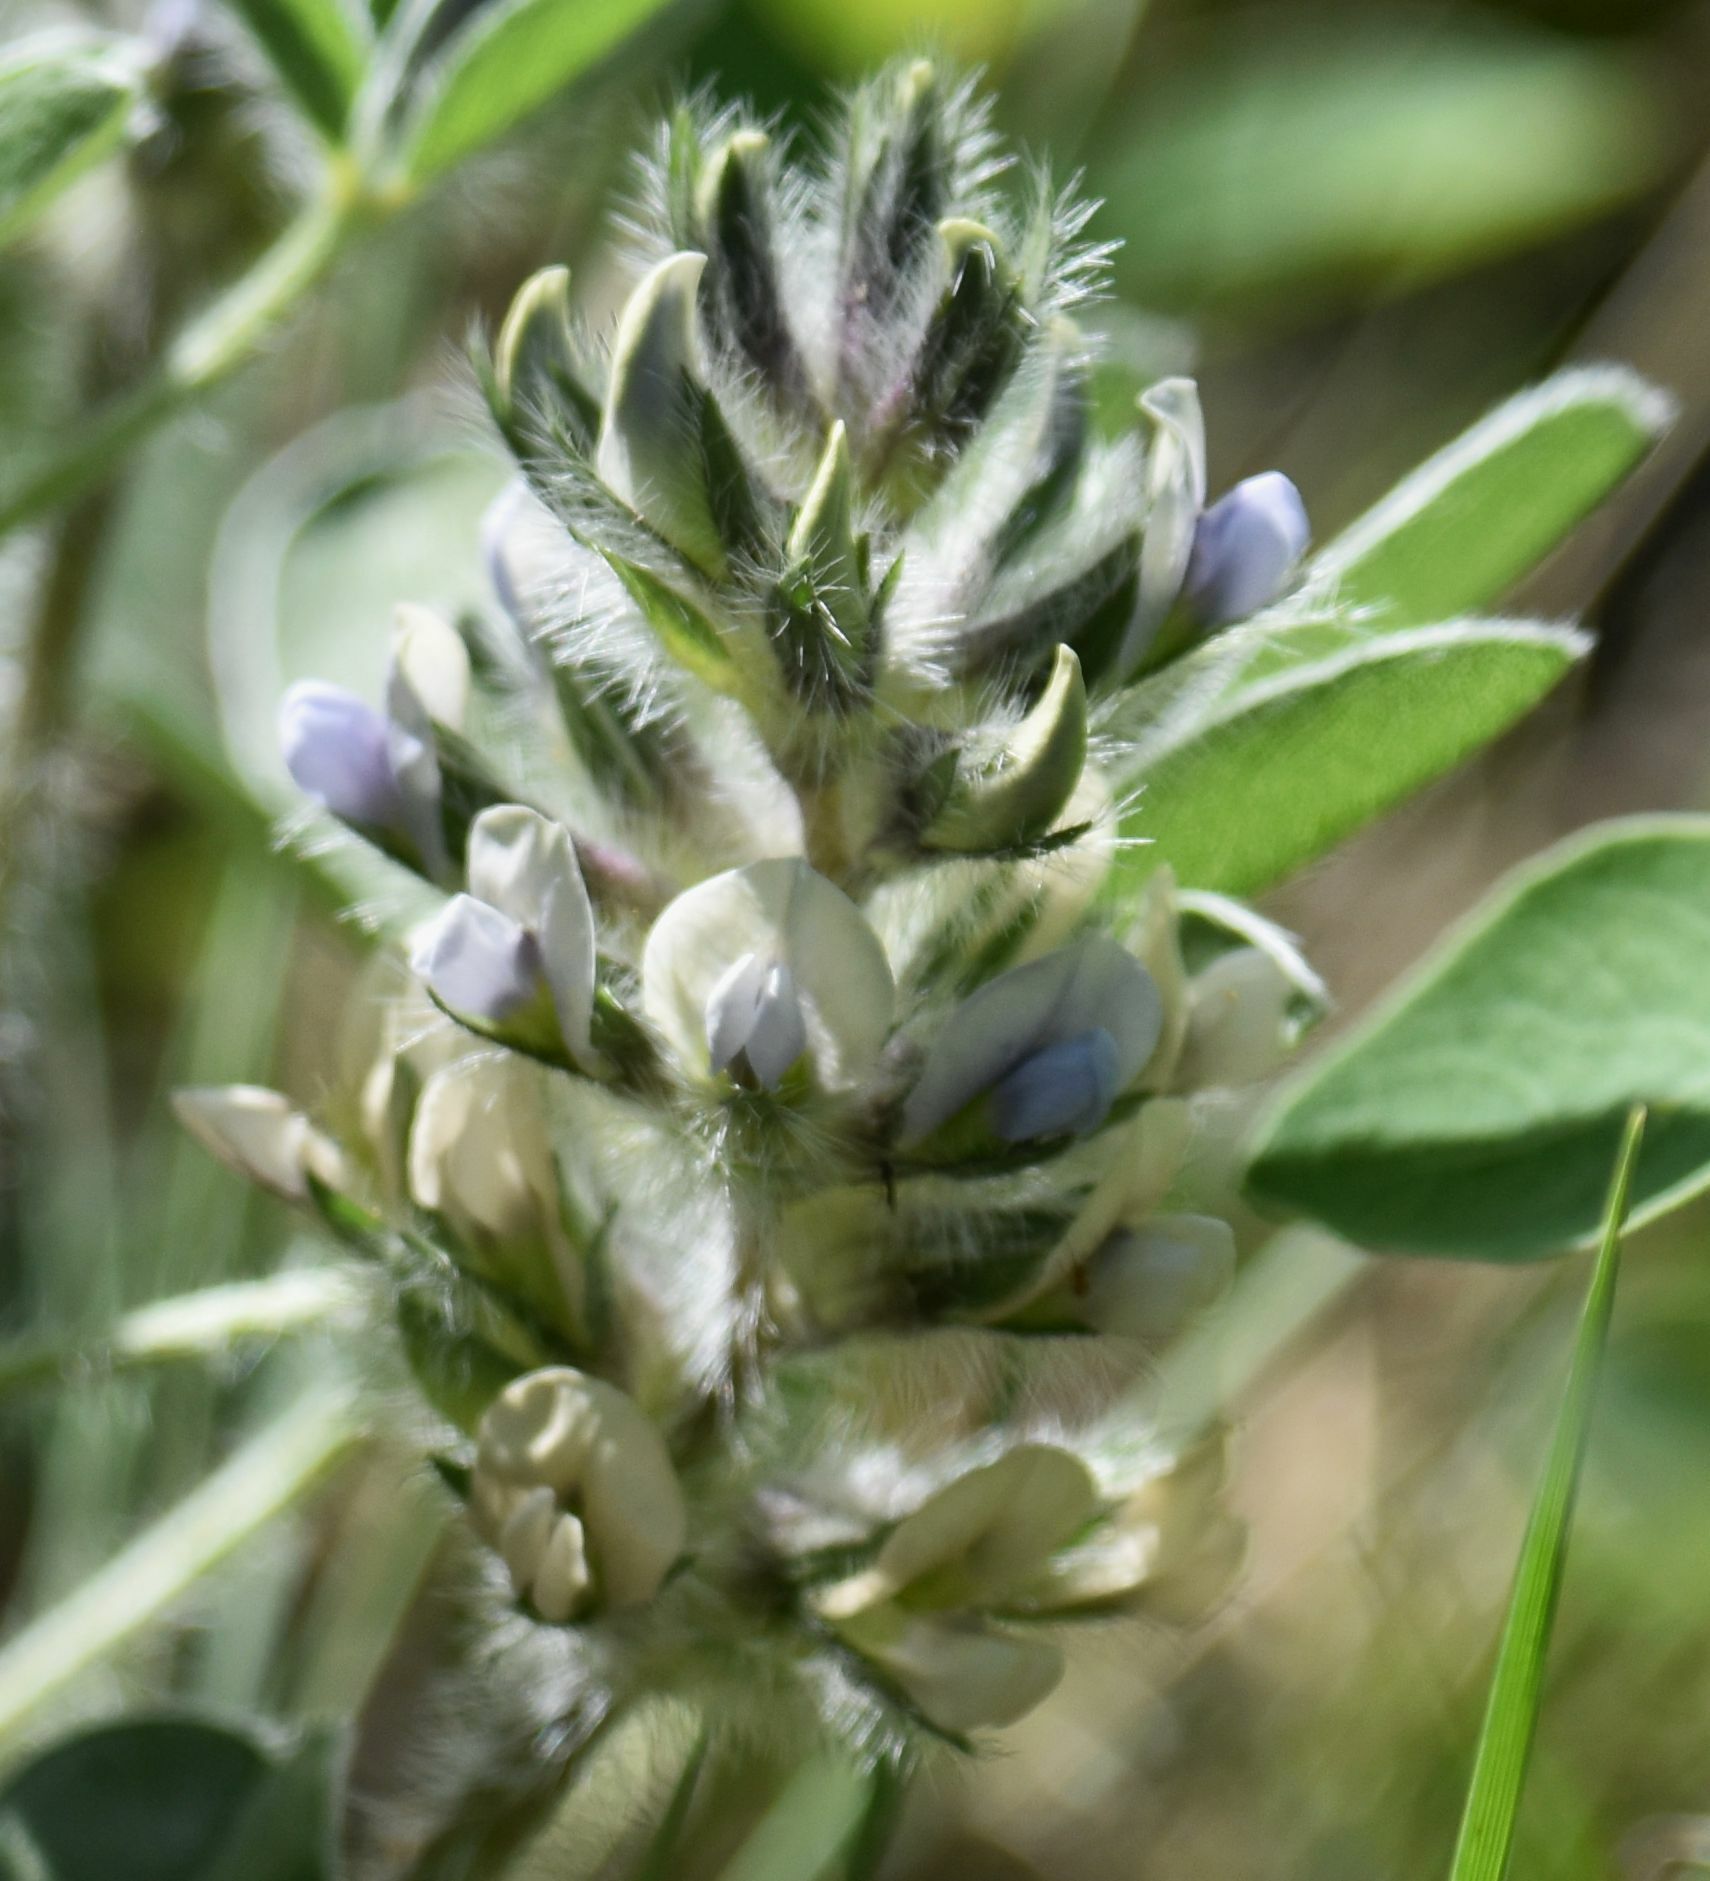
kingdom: Plantae
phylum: Tracheophyta
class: Magnoliopsida
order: Fabales
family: Fabaceae
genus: Pediomelum
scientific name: Pediomelum esculentum
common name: Indian-turnip
